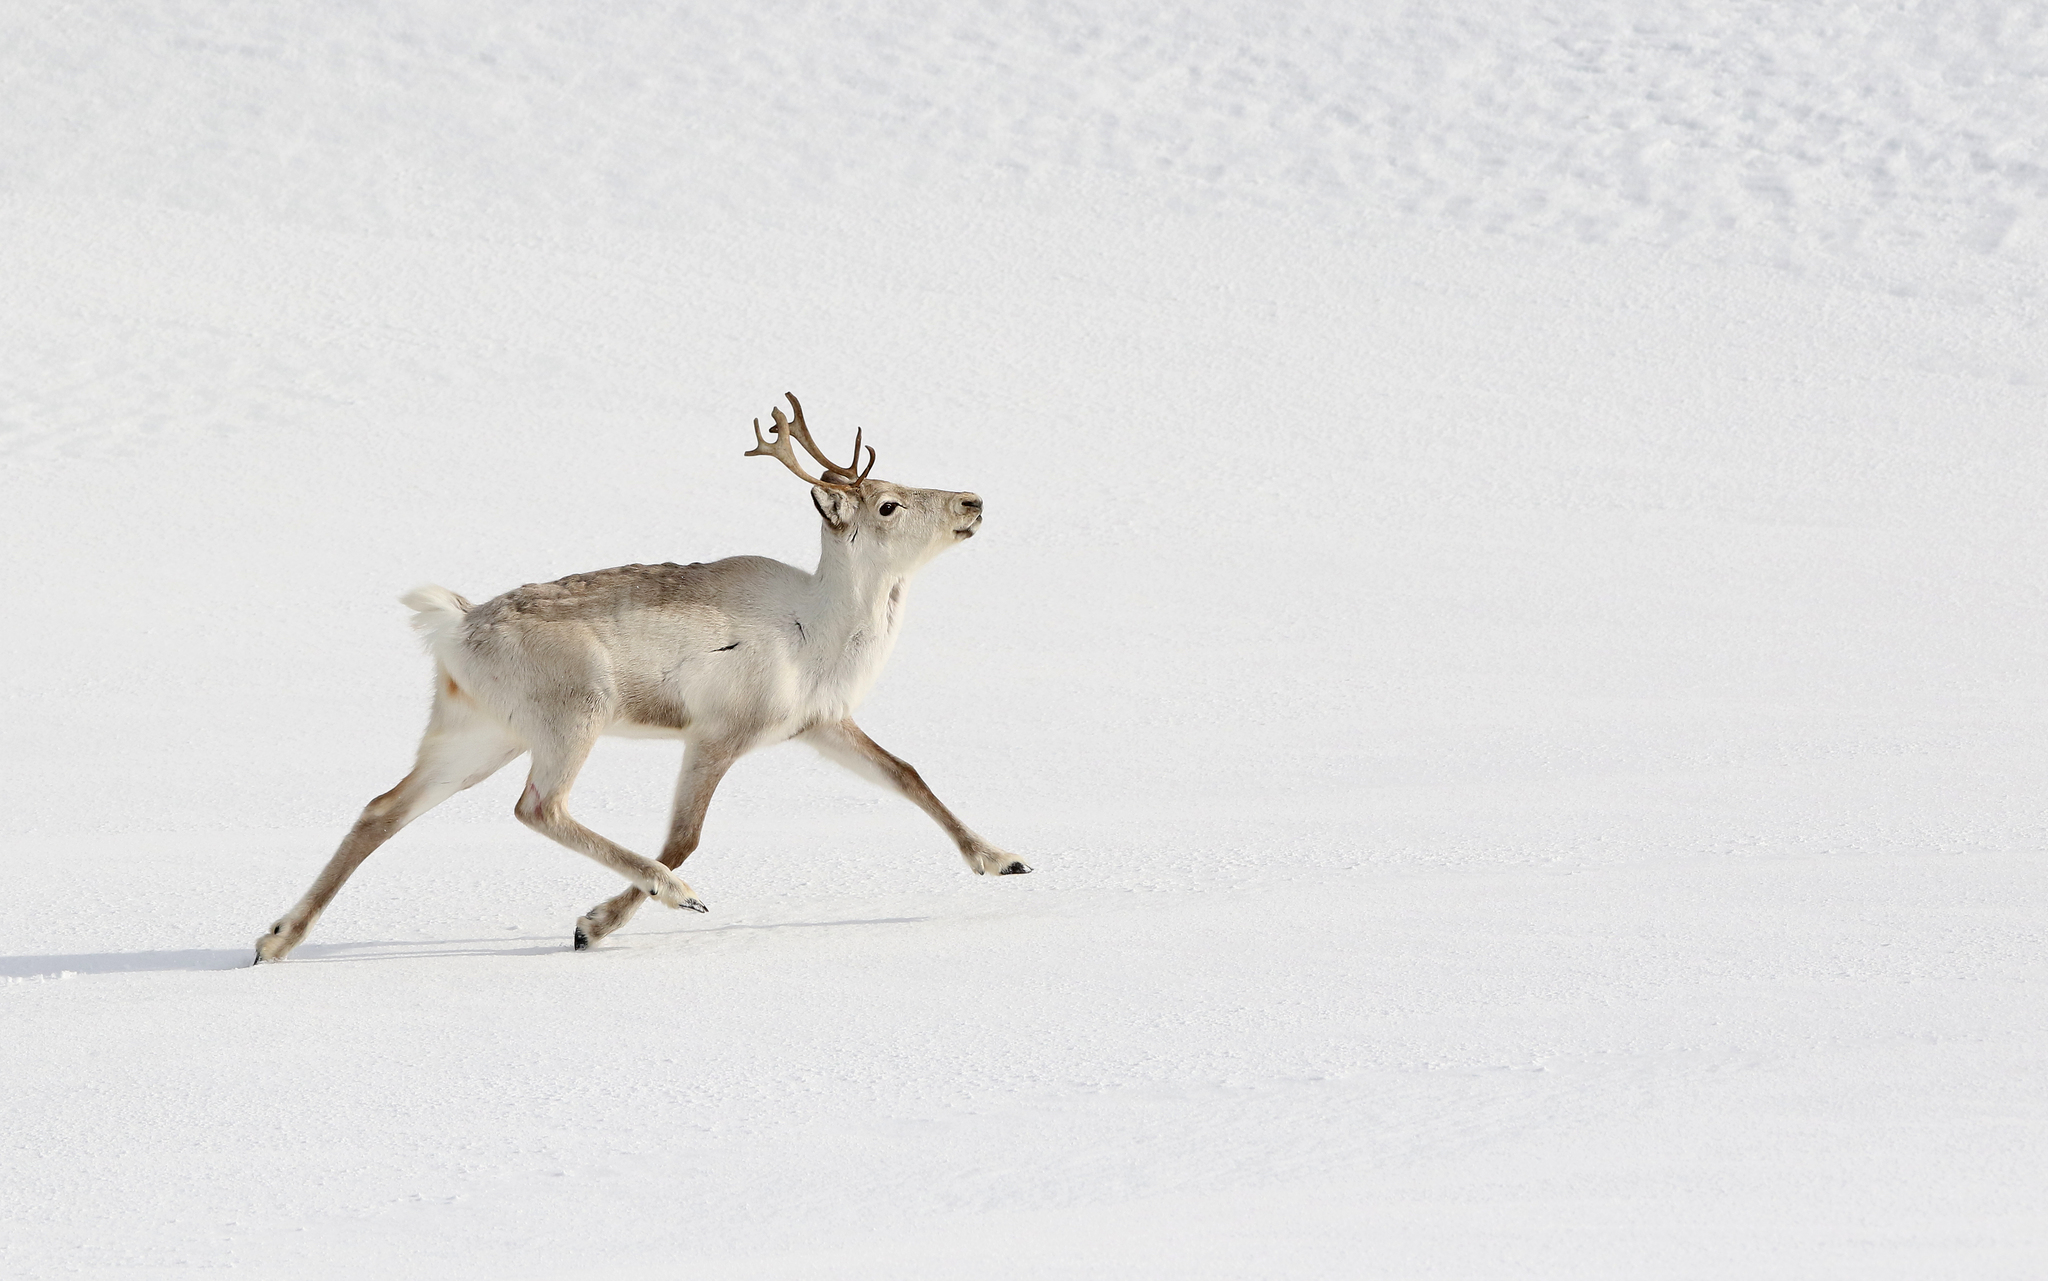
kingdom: Animalia
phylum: Chordata
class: Mammalia
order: Artiodactyla
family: Cervidae
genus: Rangifer
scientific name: Rangifer tarandus
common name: Reindeer
